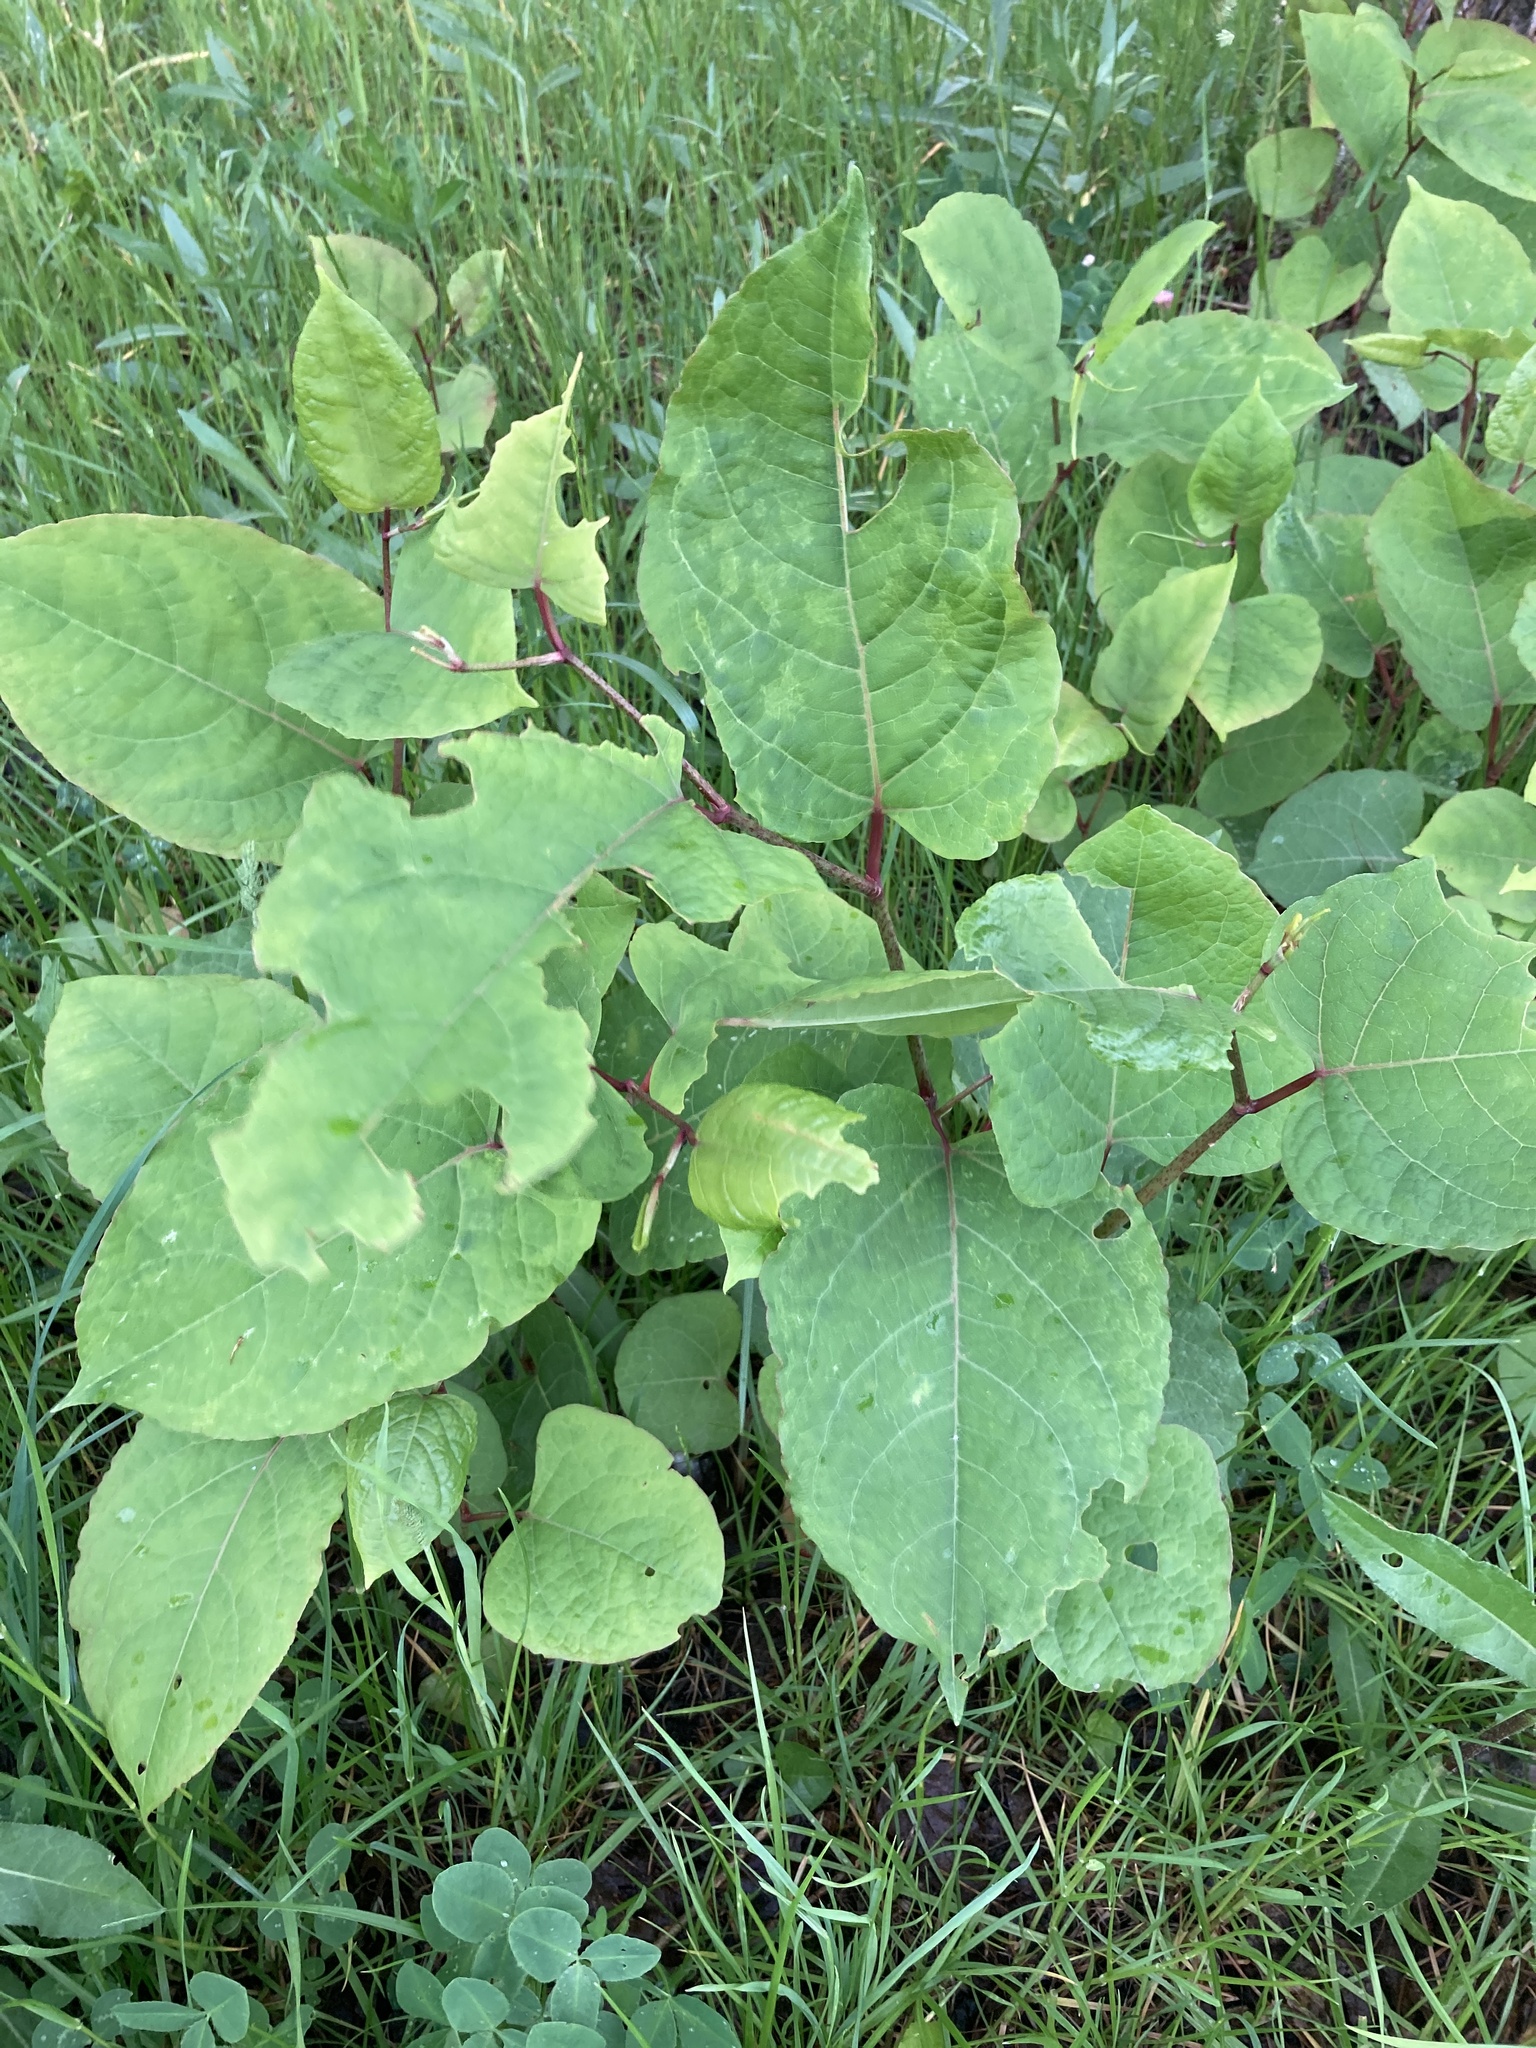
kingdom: Plantae
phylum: Tracheophyta
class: Magnoliopsida
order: Caryophyllales
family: Polygonaceae
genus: Reynoutria
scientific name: Reynoutria bohemica
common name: Bohemian knotweed
